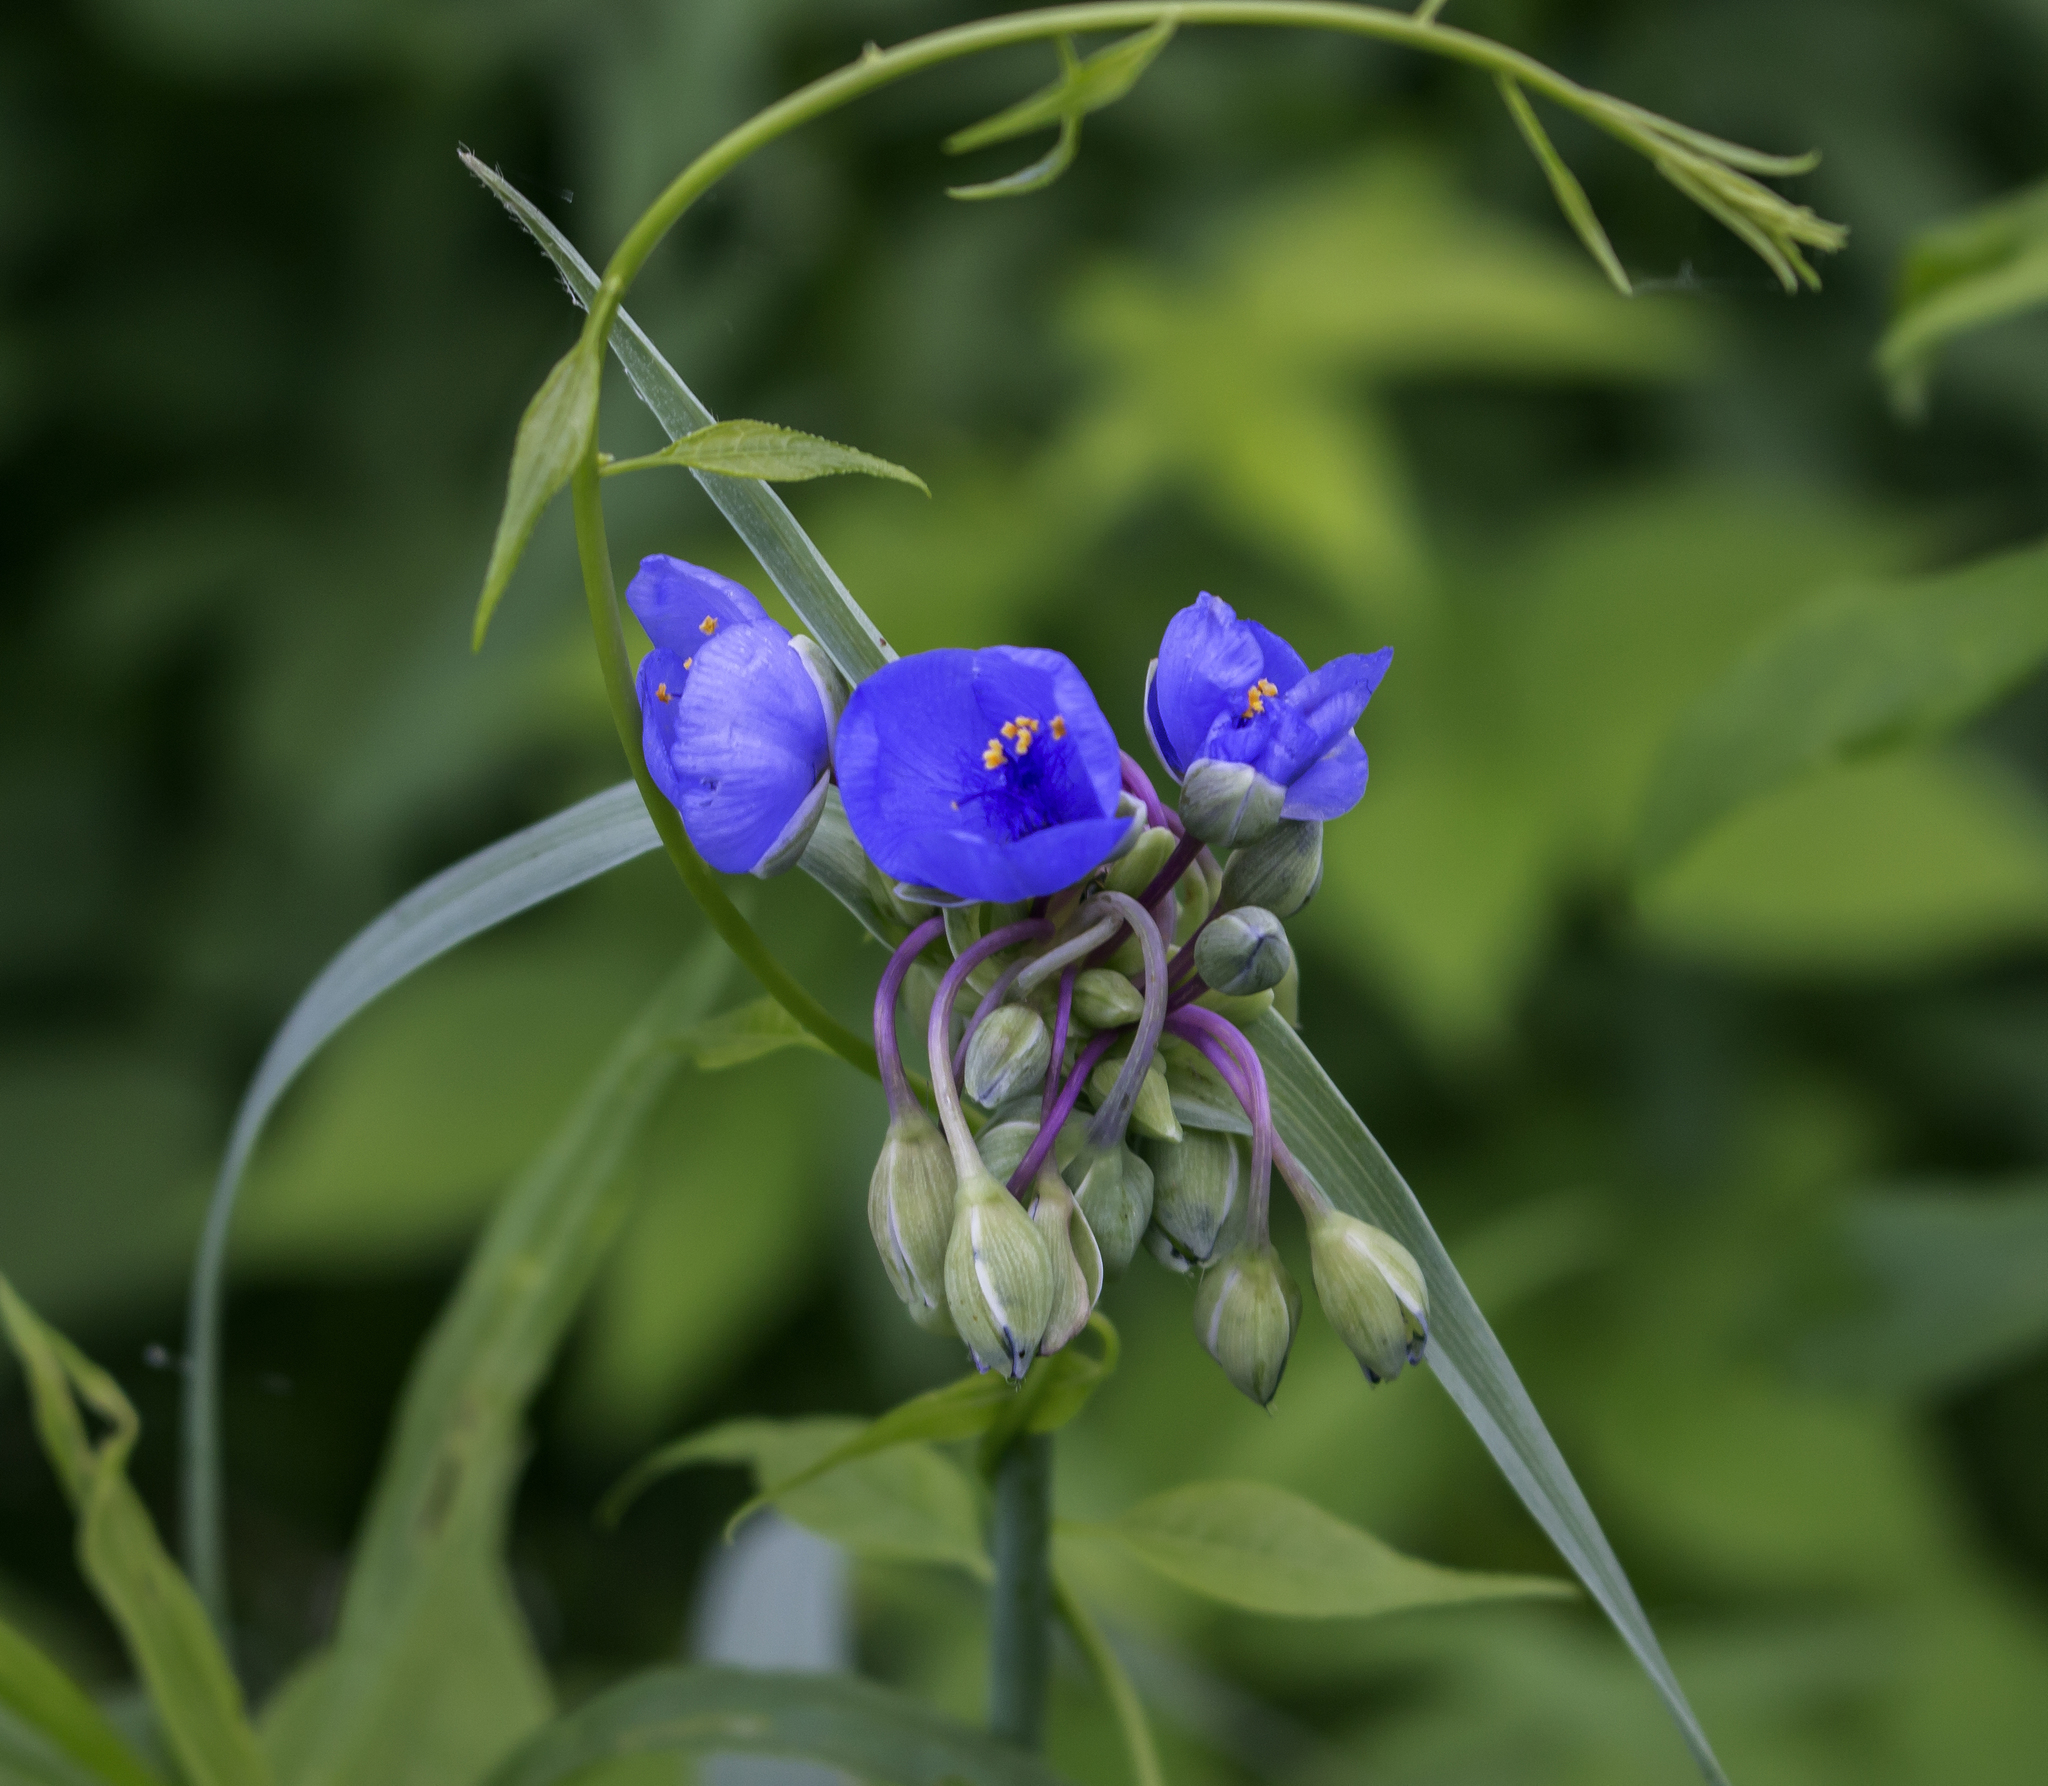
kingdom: Plantae
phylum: Tracheophyta
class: Liliopsida
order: Commelinales
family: Commelinaceae
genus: Tradescantia
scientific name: Tradescantia ohiensis
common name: Ohio spiderwort
